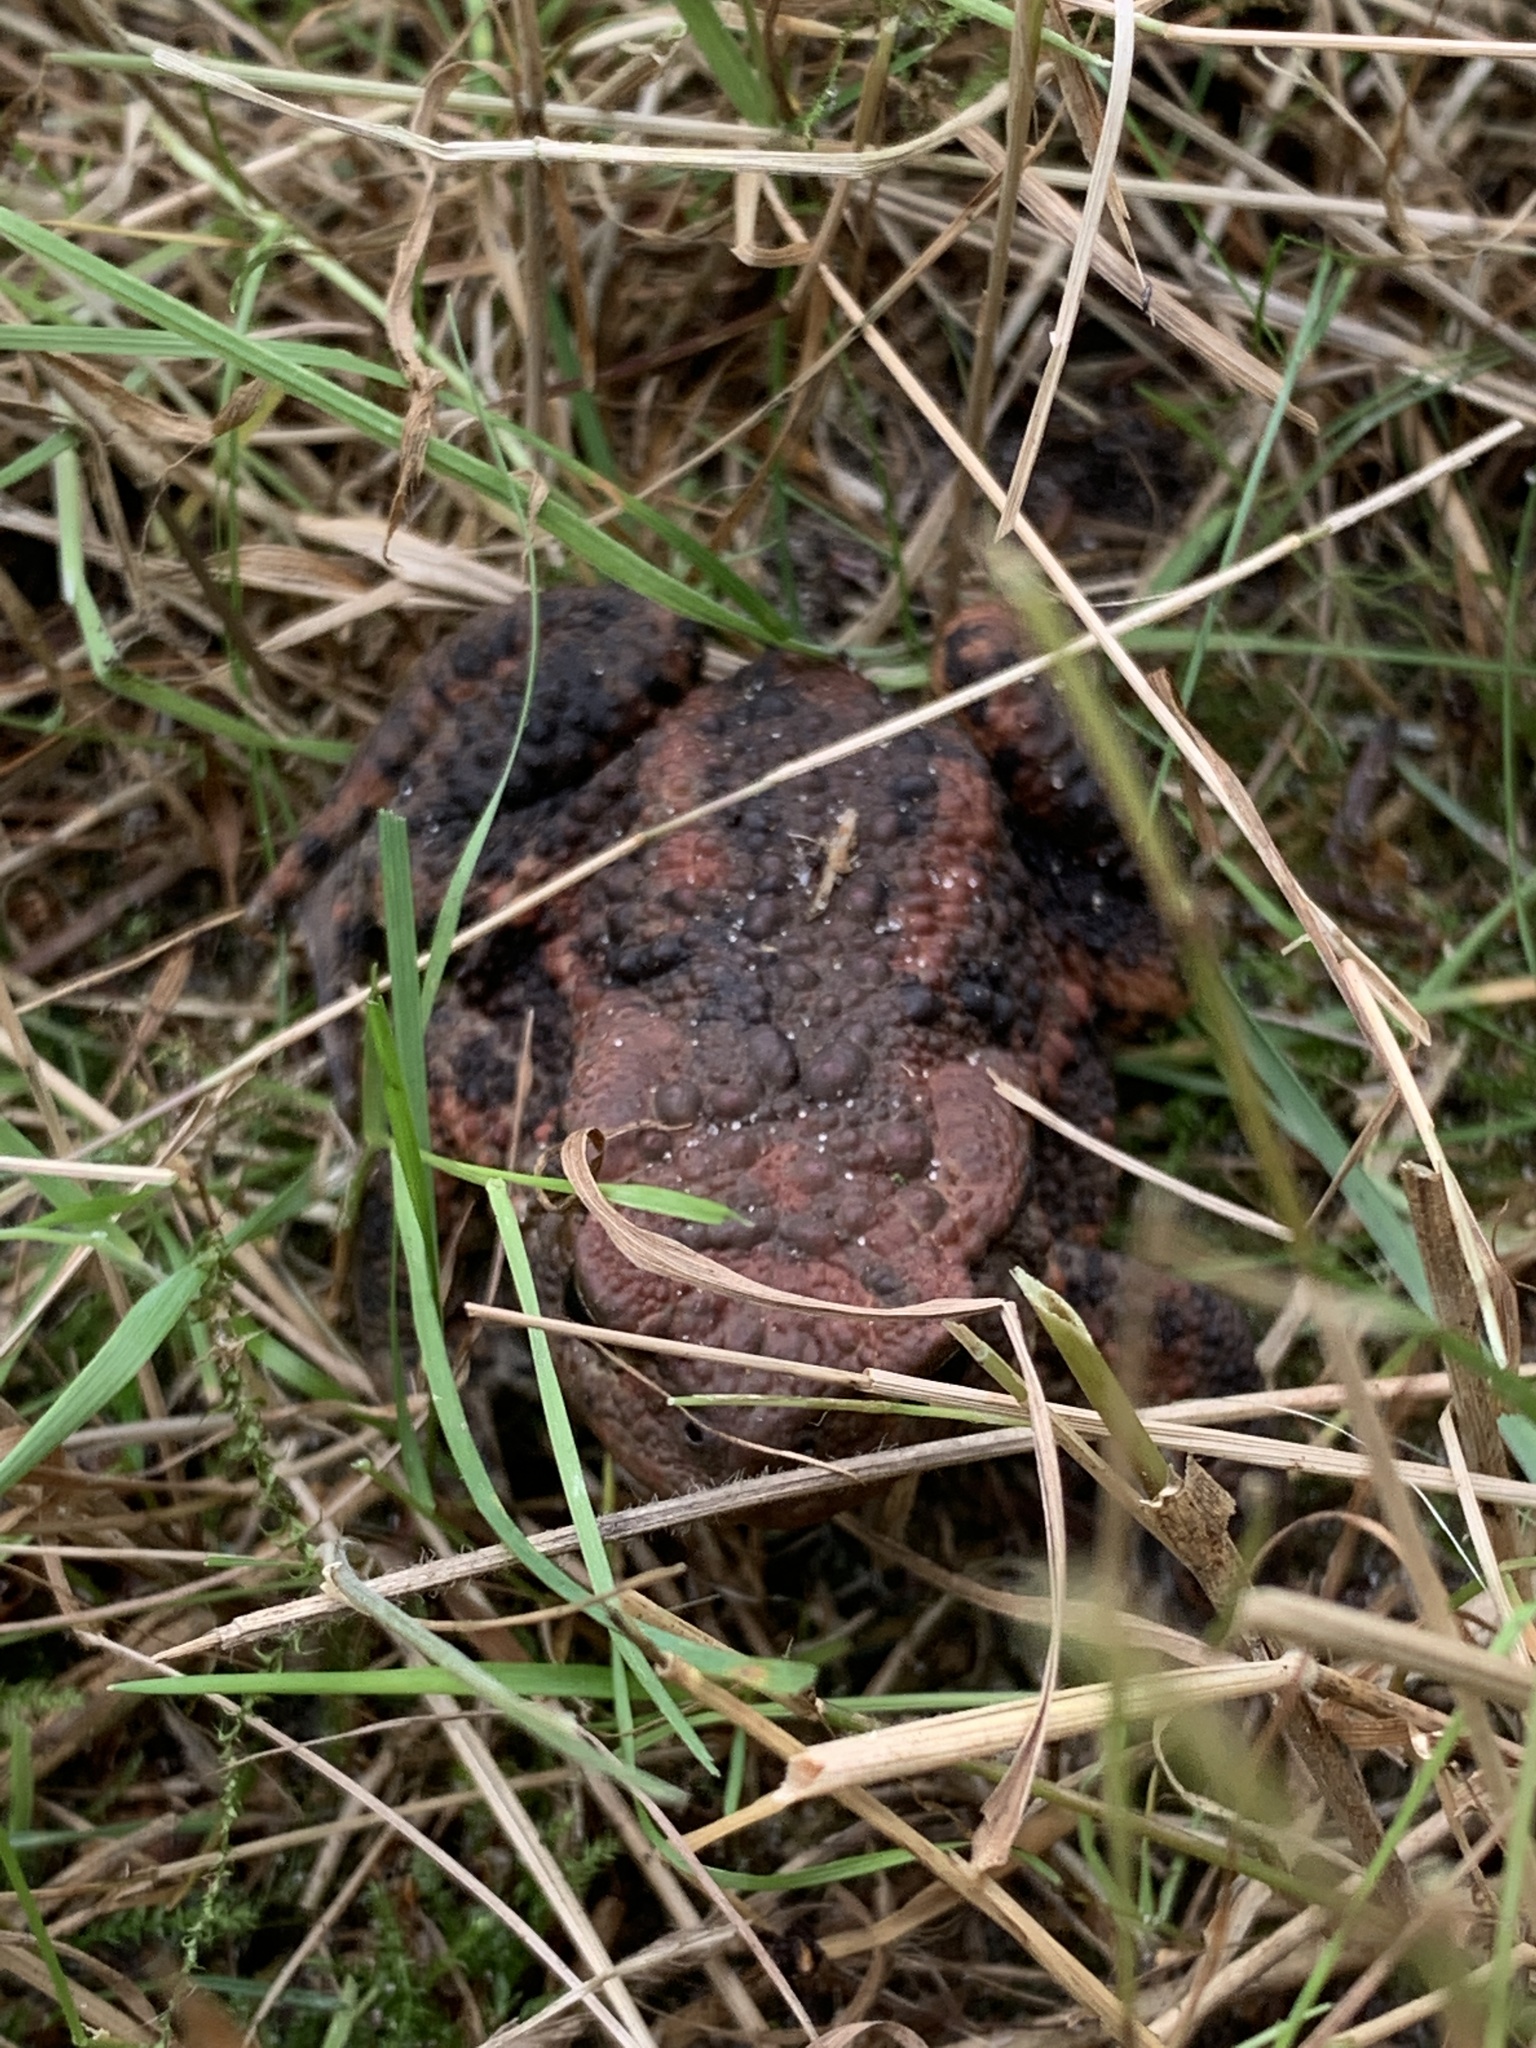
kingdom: Animalia
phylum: Chordata
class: Amphibia
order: Anura
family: Bufonidae
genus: Bufo
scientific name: Bufo bufo
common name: Common toad
